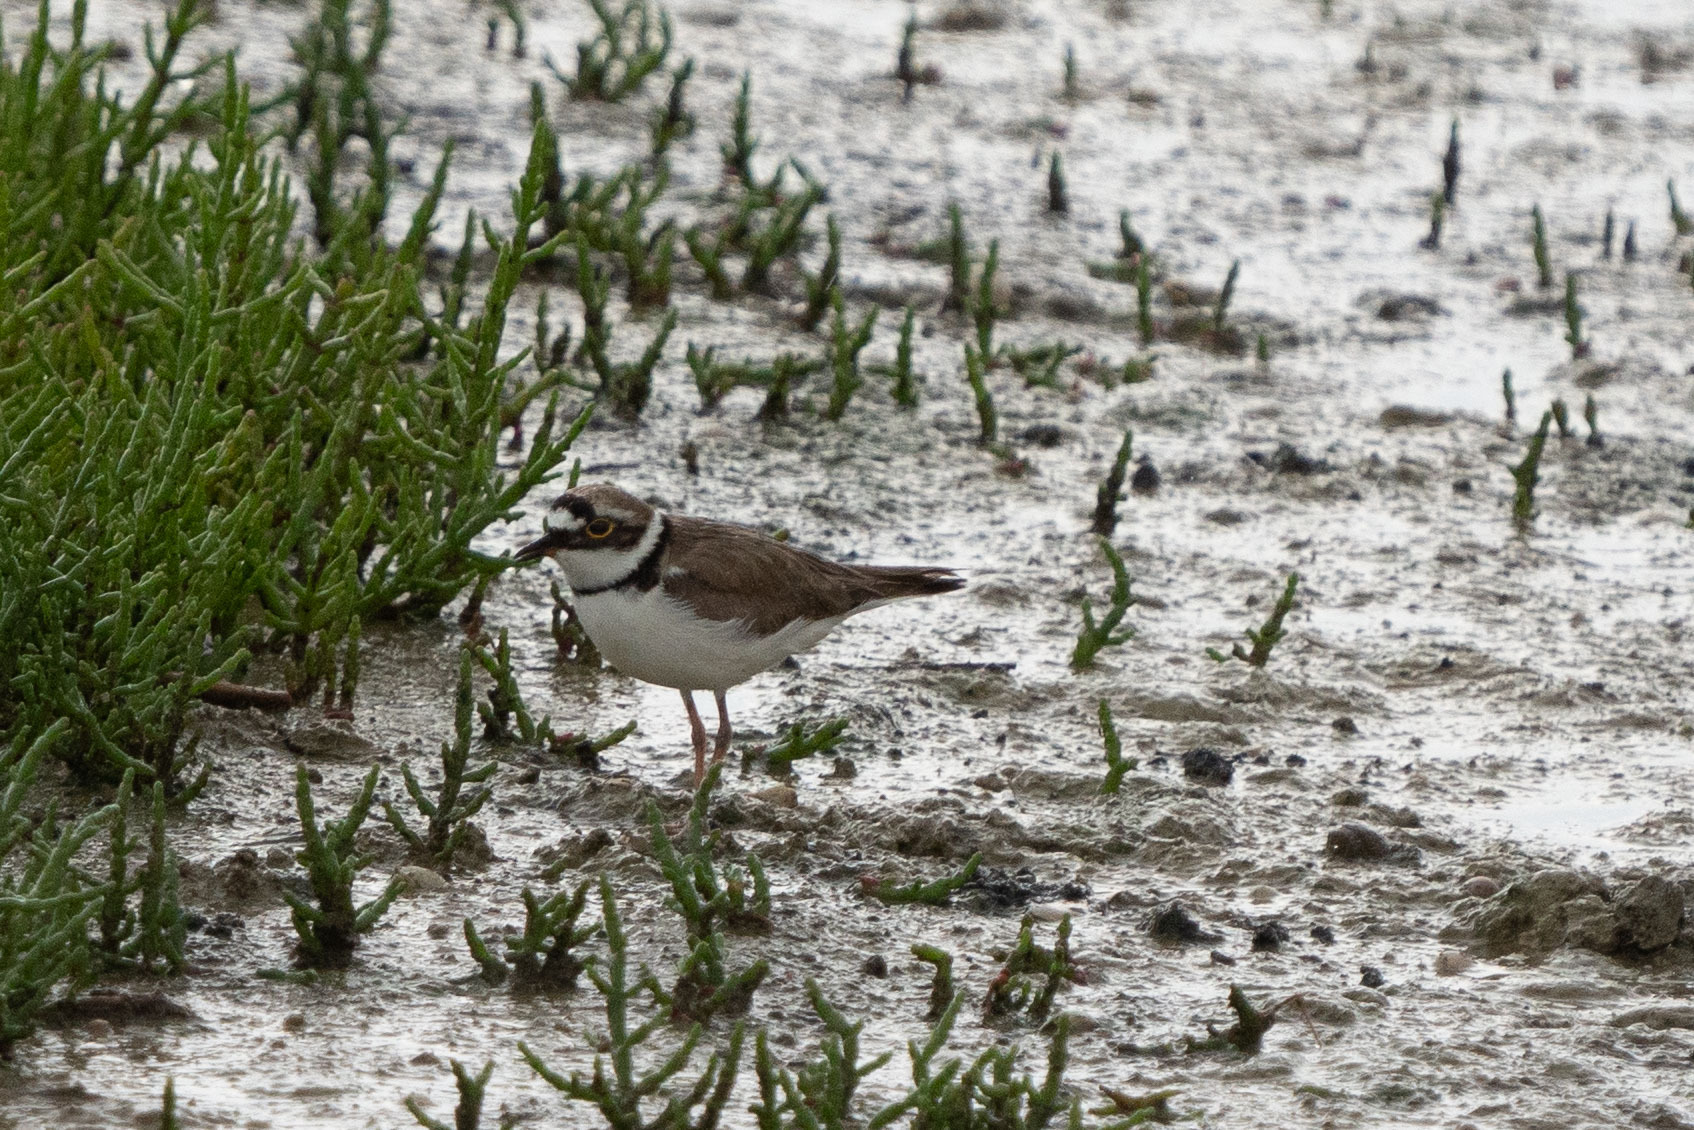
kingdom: Animalia
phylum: Chordata
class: Aves
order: Charadriiformes
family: Charadriidae
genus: Charadrius
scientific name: Charadrius dubius
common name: Little ringed plover
